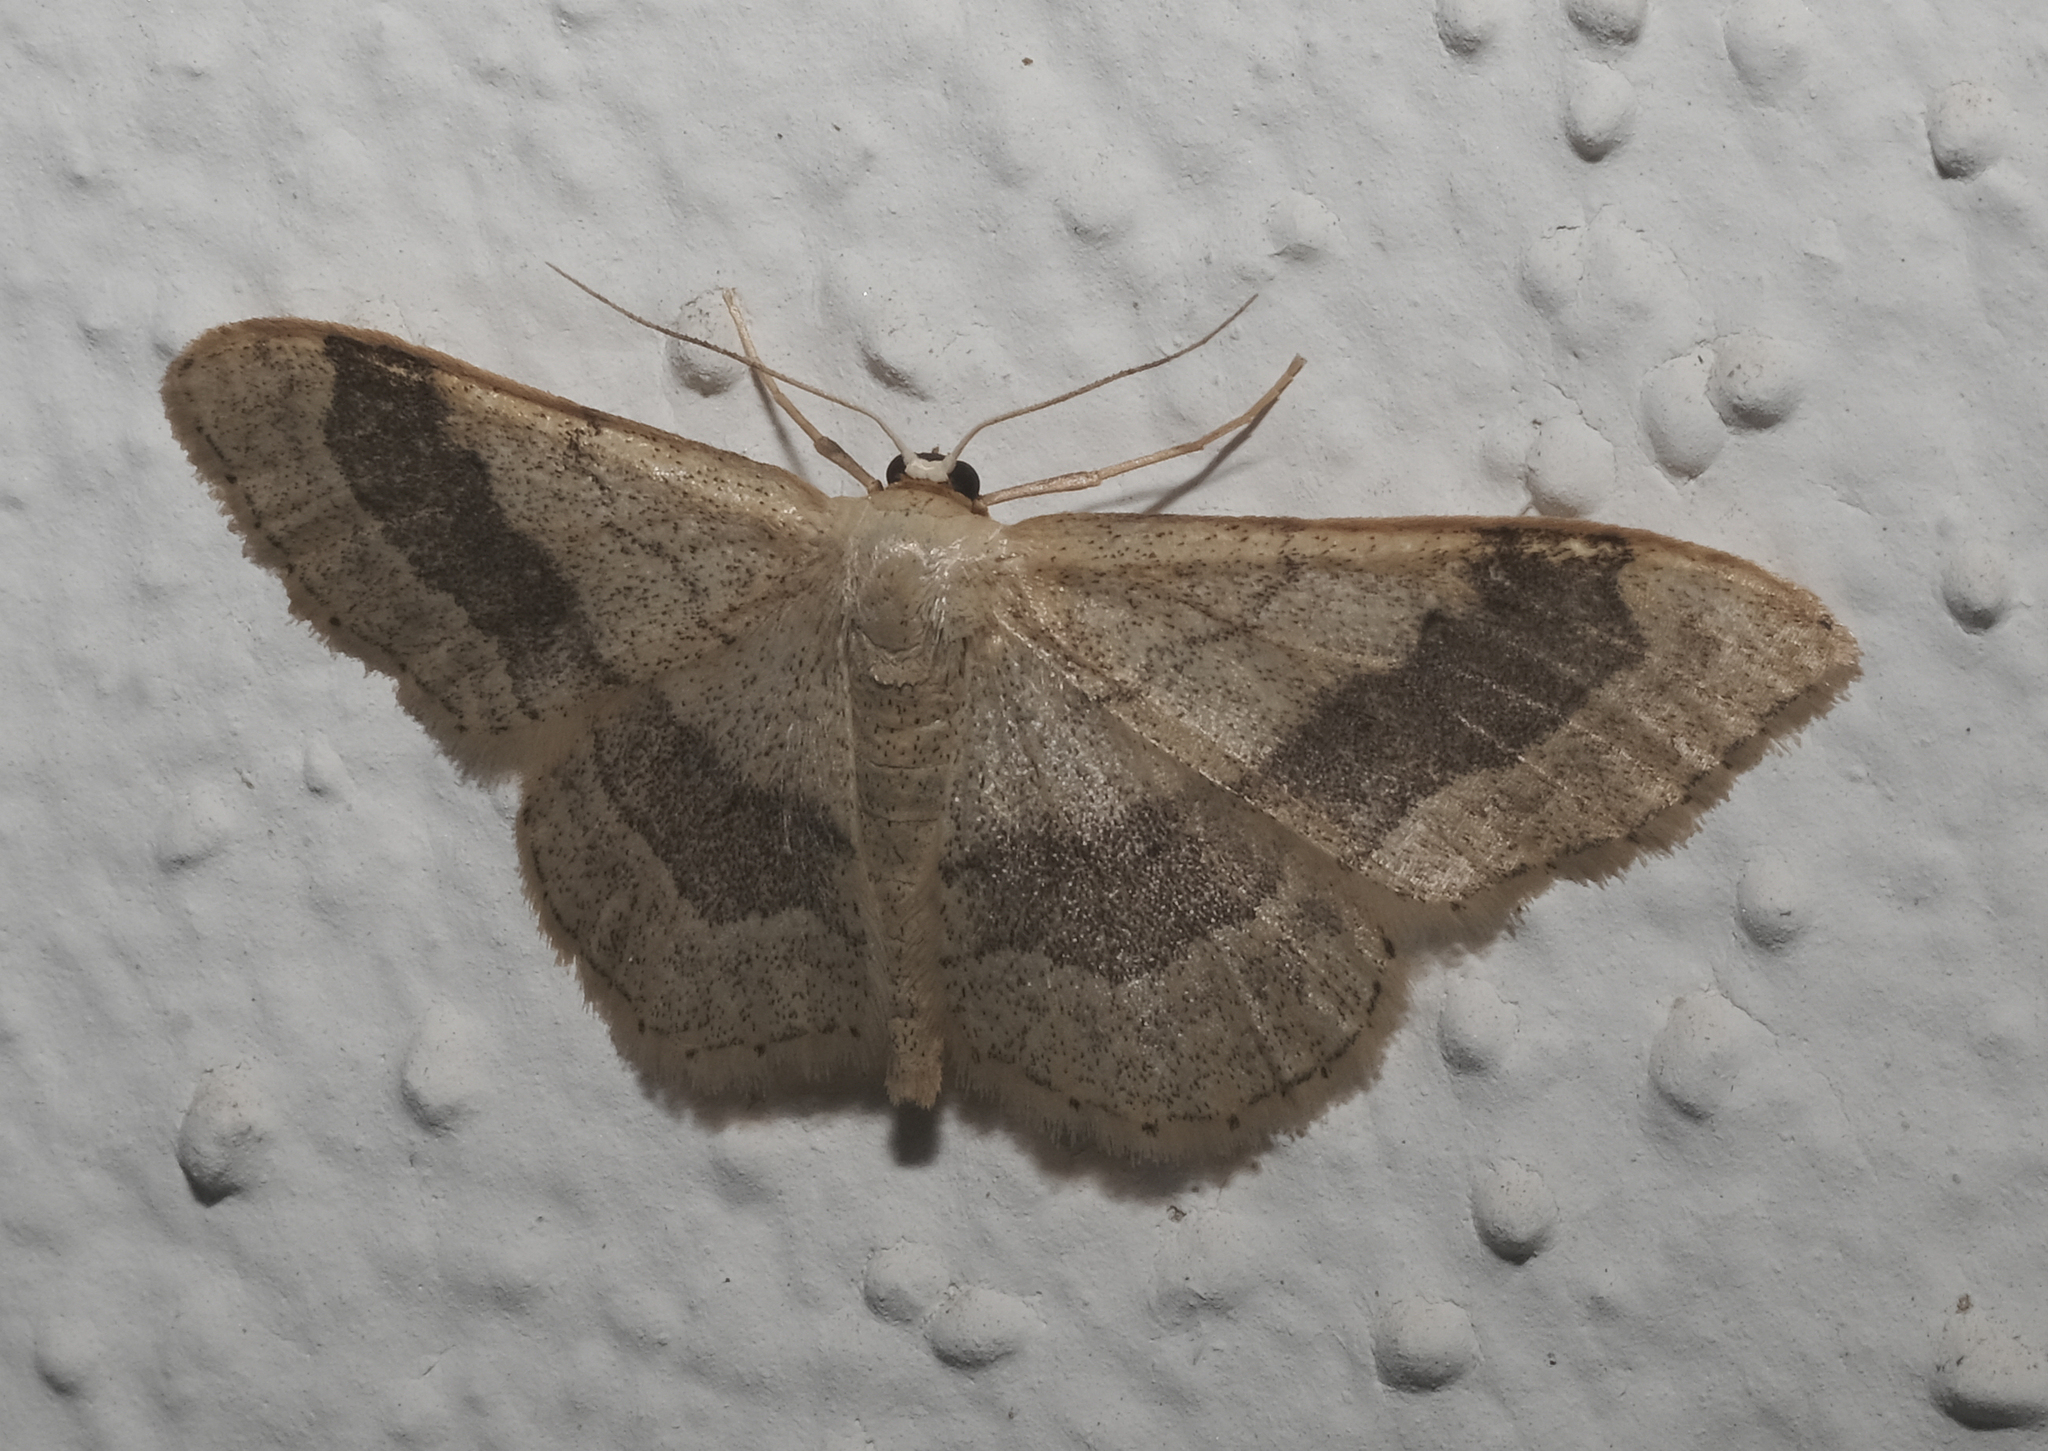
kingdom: Animalia
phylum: Arthropoda
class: Insecta
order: Lepidoptera
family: Geometridae
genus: Idaea
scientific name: Idaea aversata
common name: Riband wave
